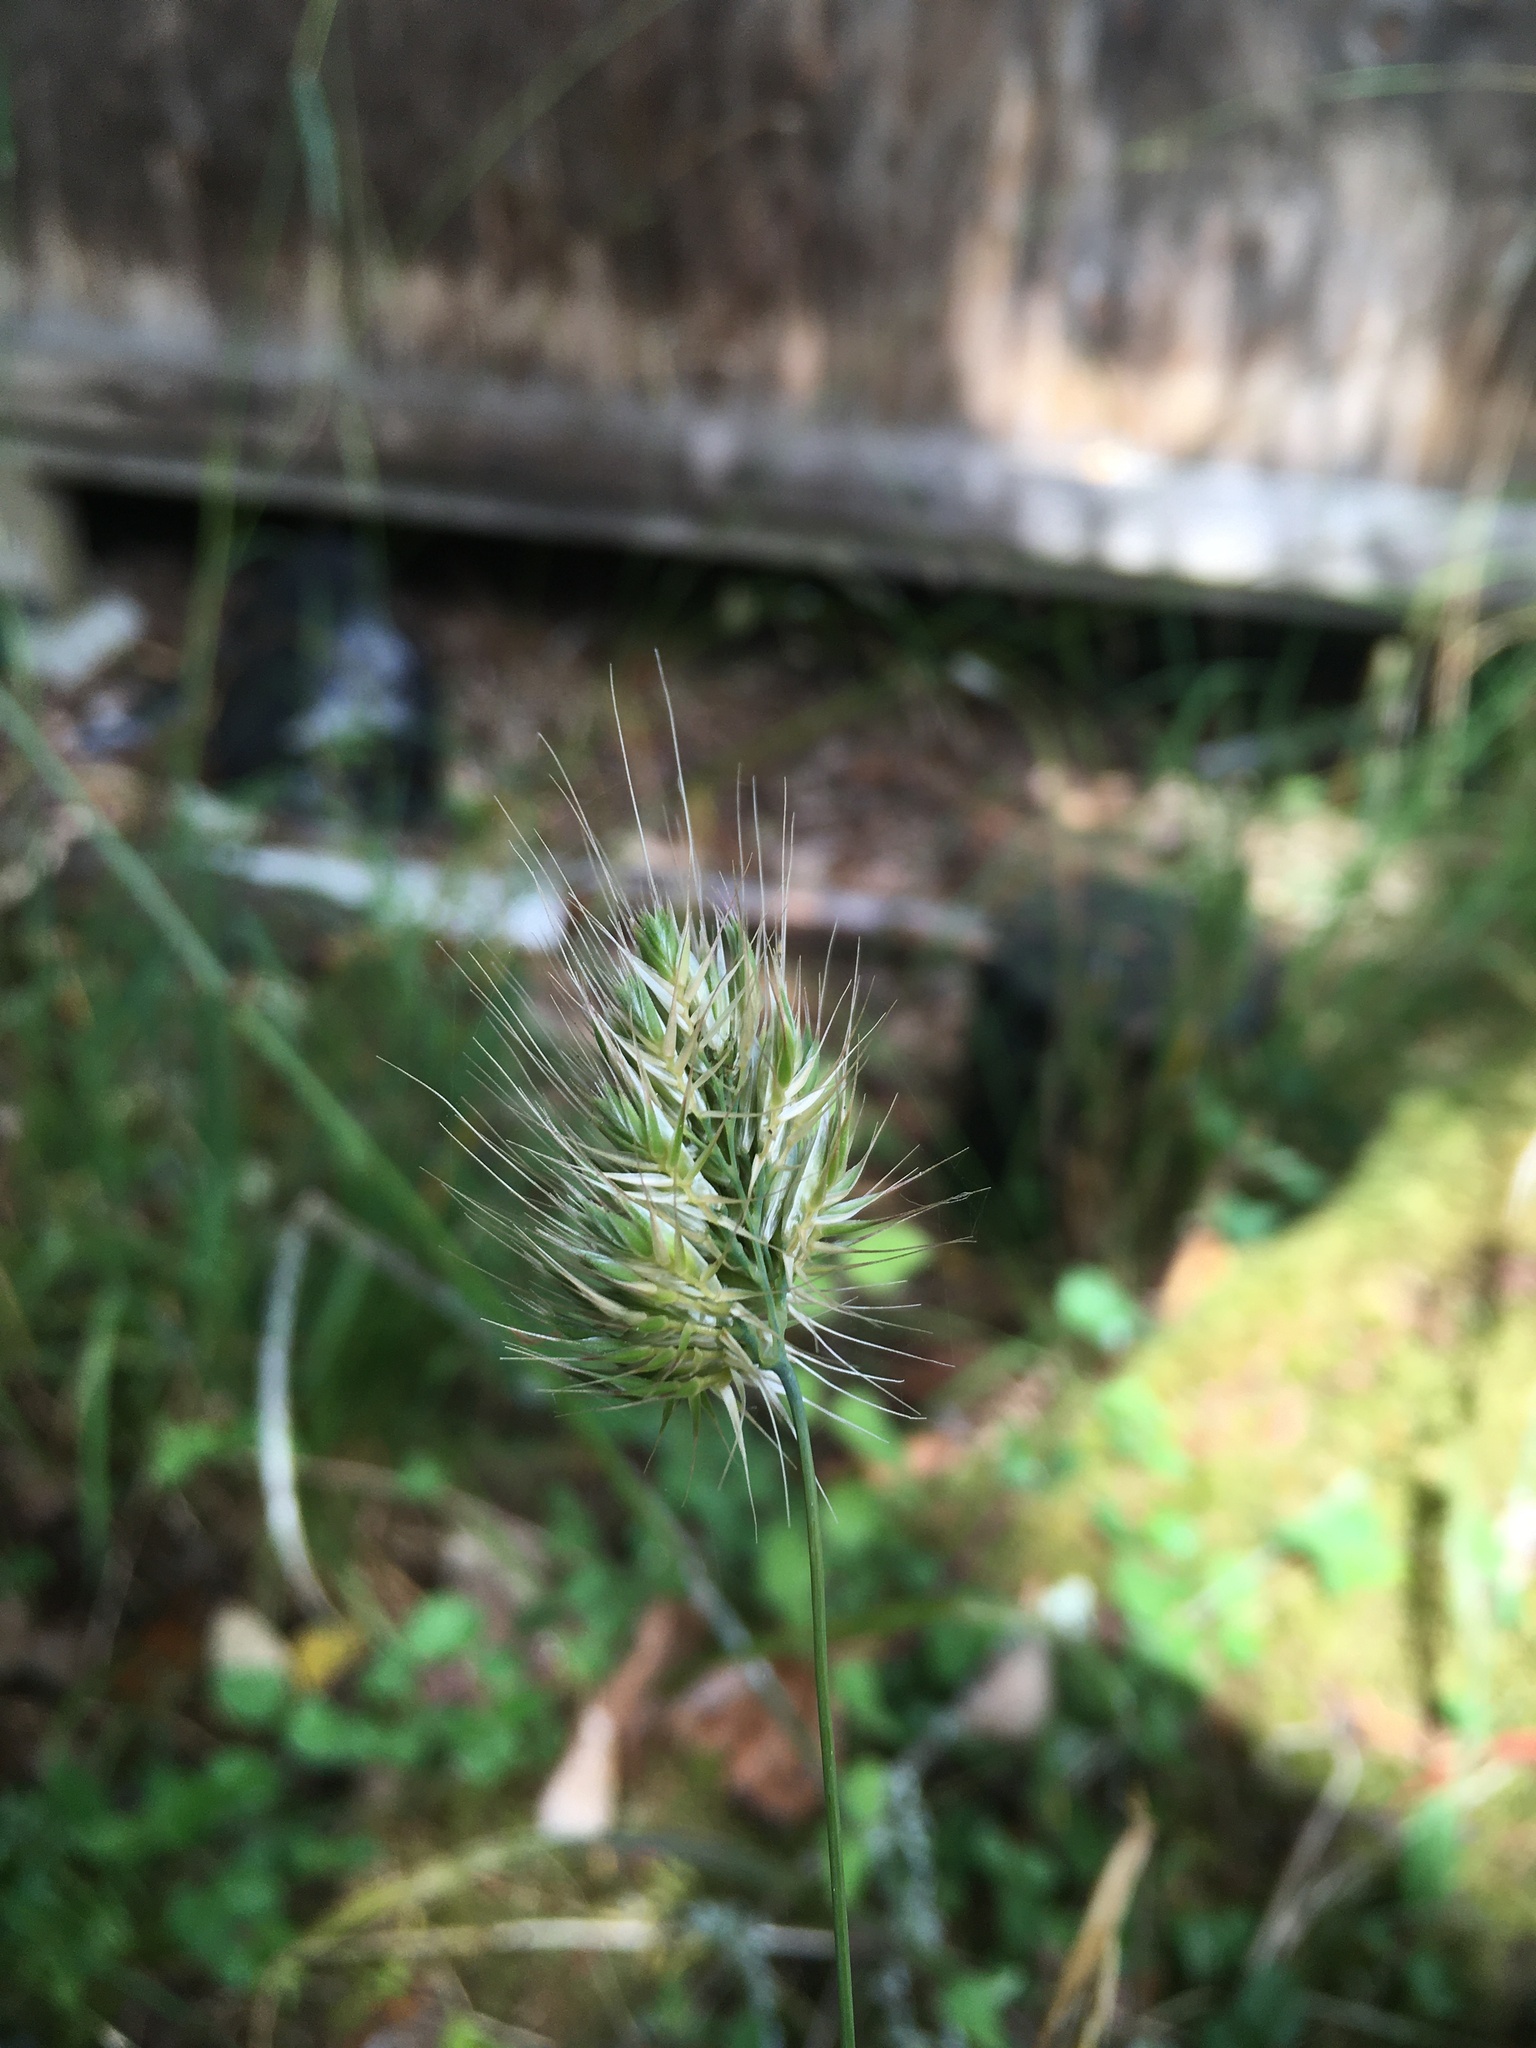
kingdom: Plantae
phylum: Tracheophyta
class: Liliopsida
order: Poales
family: Poaceae
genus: Cynosurus
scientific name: Cynosurus echinatus
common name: Rough dog's-tail
